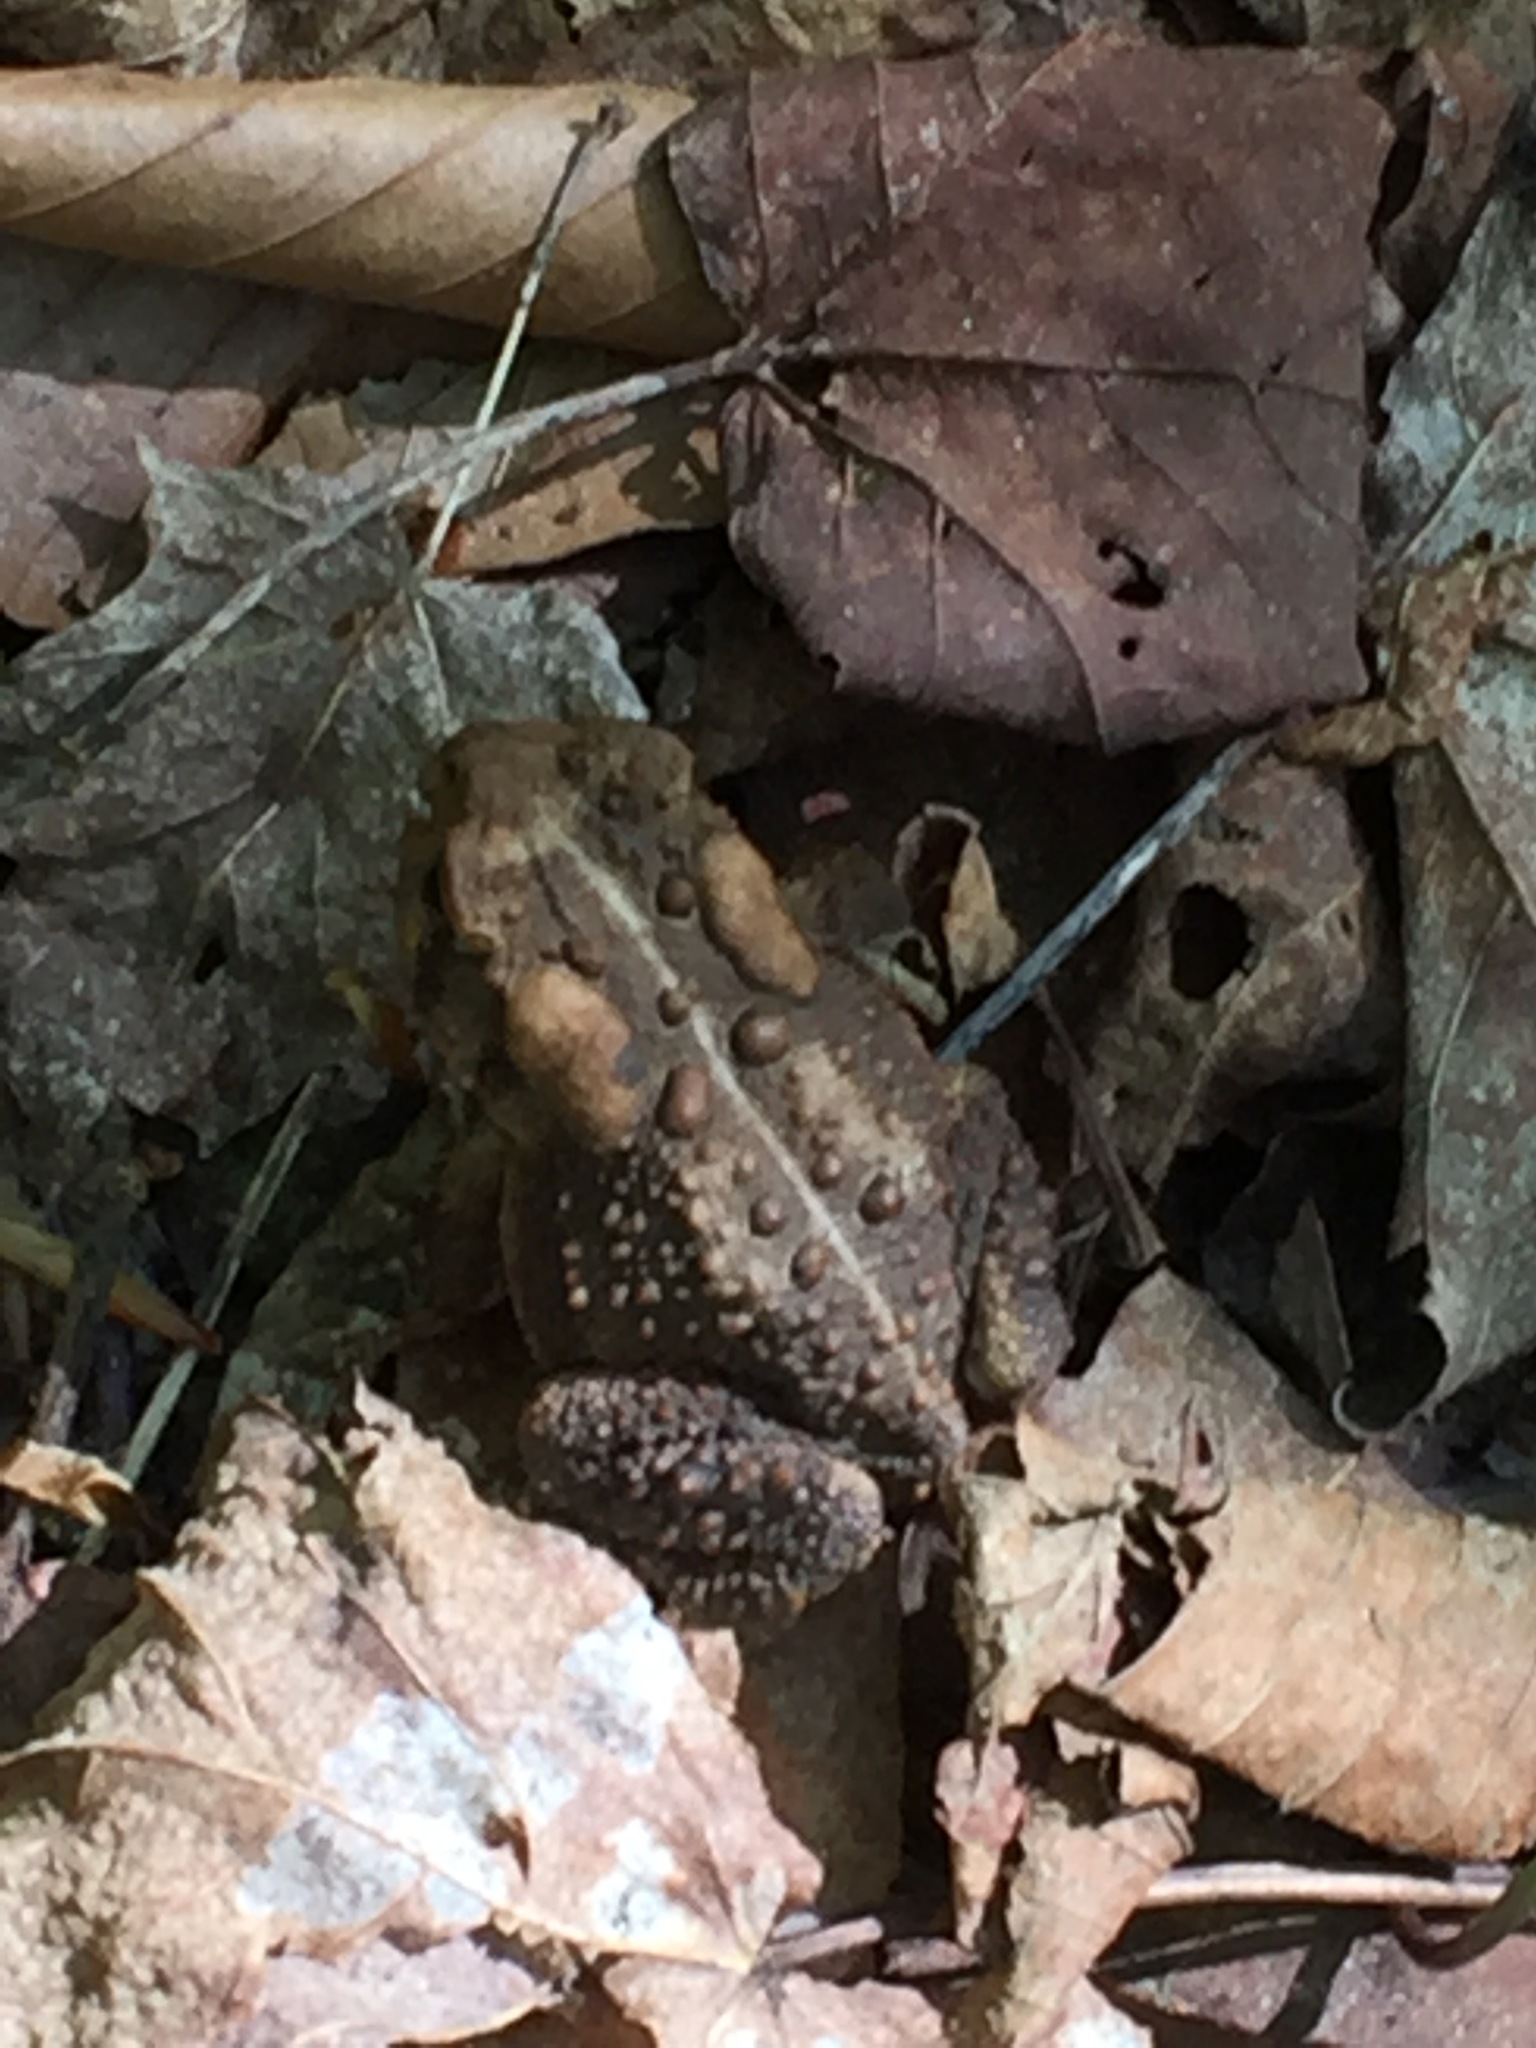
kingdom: Animalia
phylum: Chordata
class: Amphibia
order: Anura
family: Bufonidae
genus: Anaxyrus
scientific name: Anaxyrus americanus
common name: American toad
